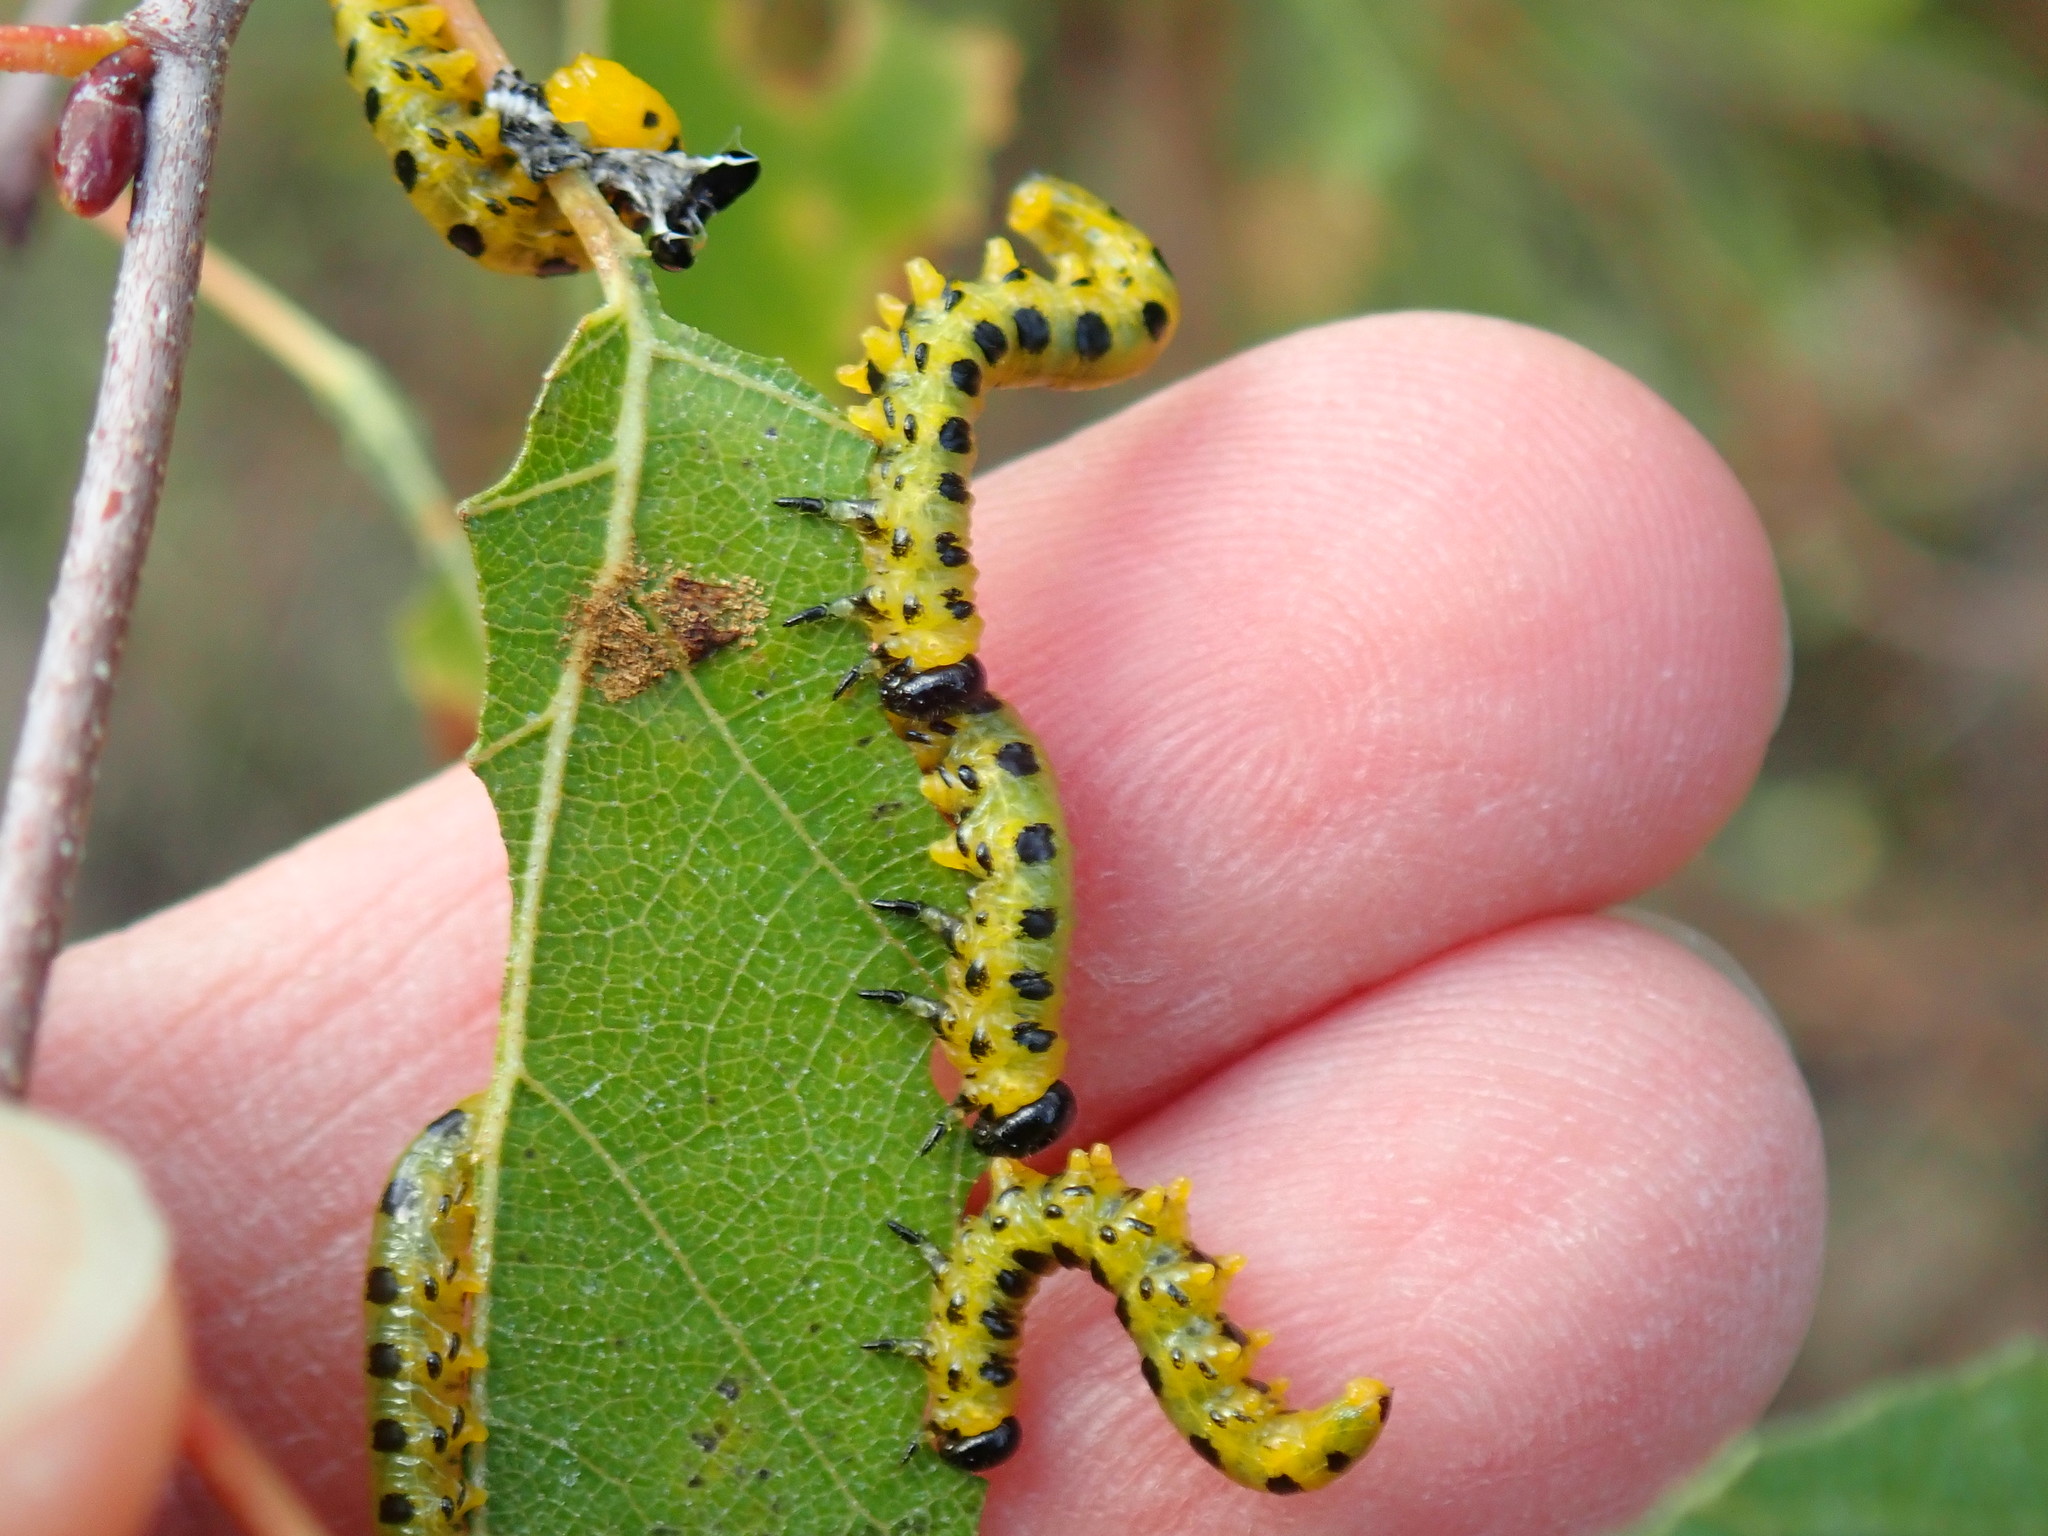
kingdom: Animalia
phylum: Arthropoda
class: Insecta
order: Hymenoptera
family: Tenthredinidae
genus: Nematus
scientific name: Nematus
